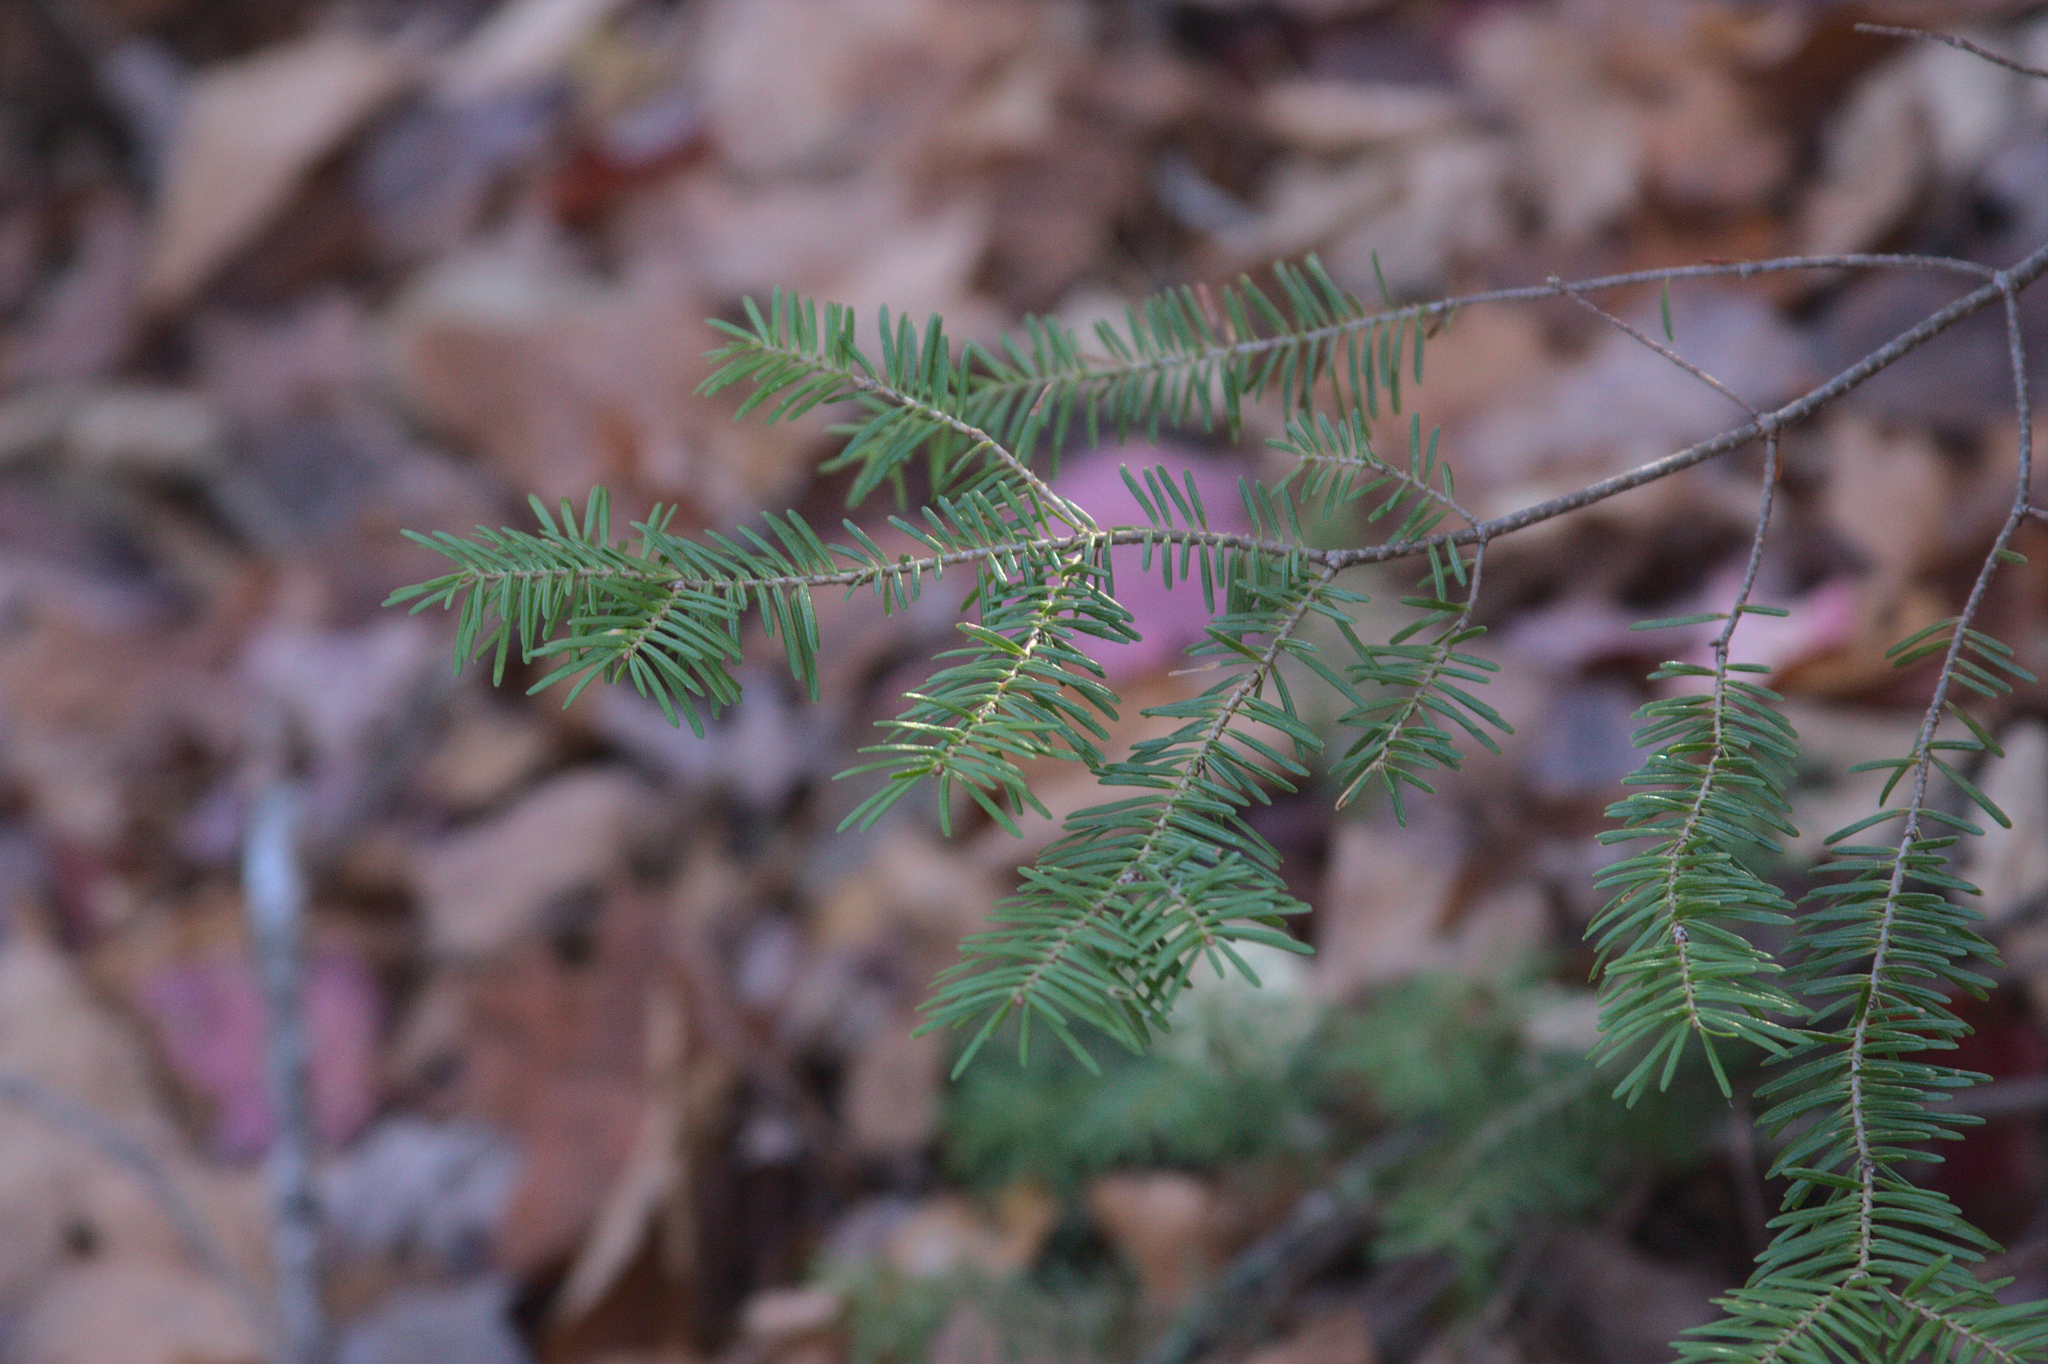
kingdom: Plantae
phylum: Tracheophyta
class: Pinopsida
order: Pinales
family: Pinaceae
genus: Abies
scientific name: Abies balsamea
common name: Balsam fir
